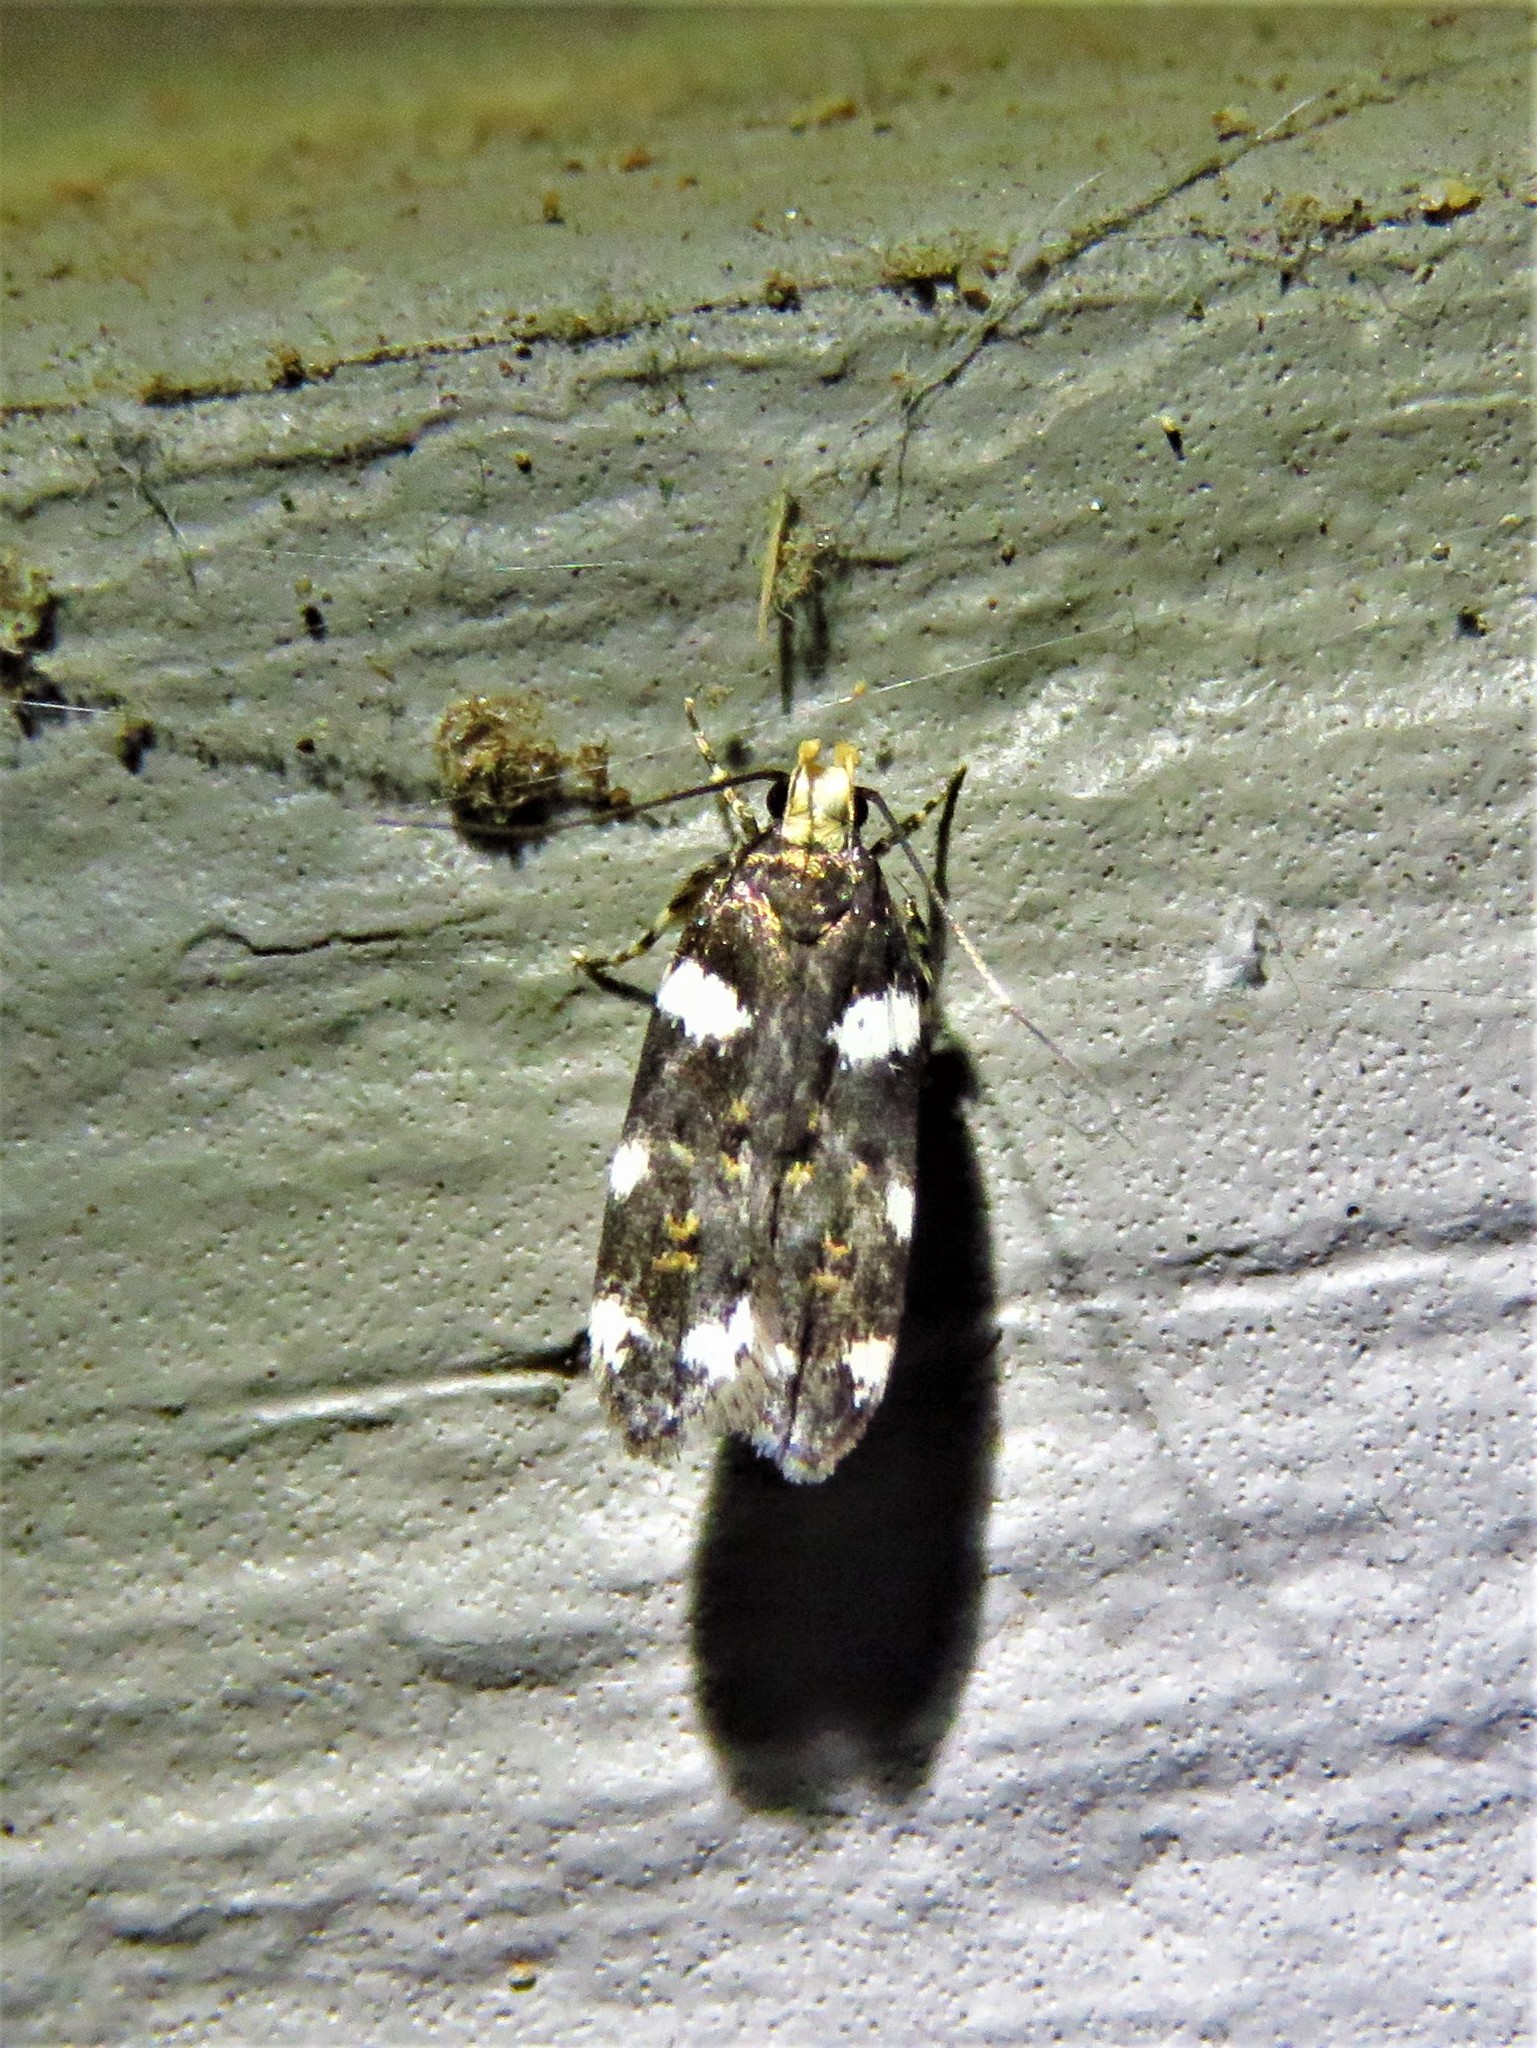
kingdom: Animalia
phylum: Arthropoda
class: Insecta
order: Lepidoptera
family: Gelechiidae
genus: Fascista
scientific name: Fascista cercerisella
